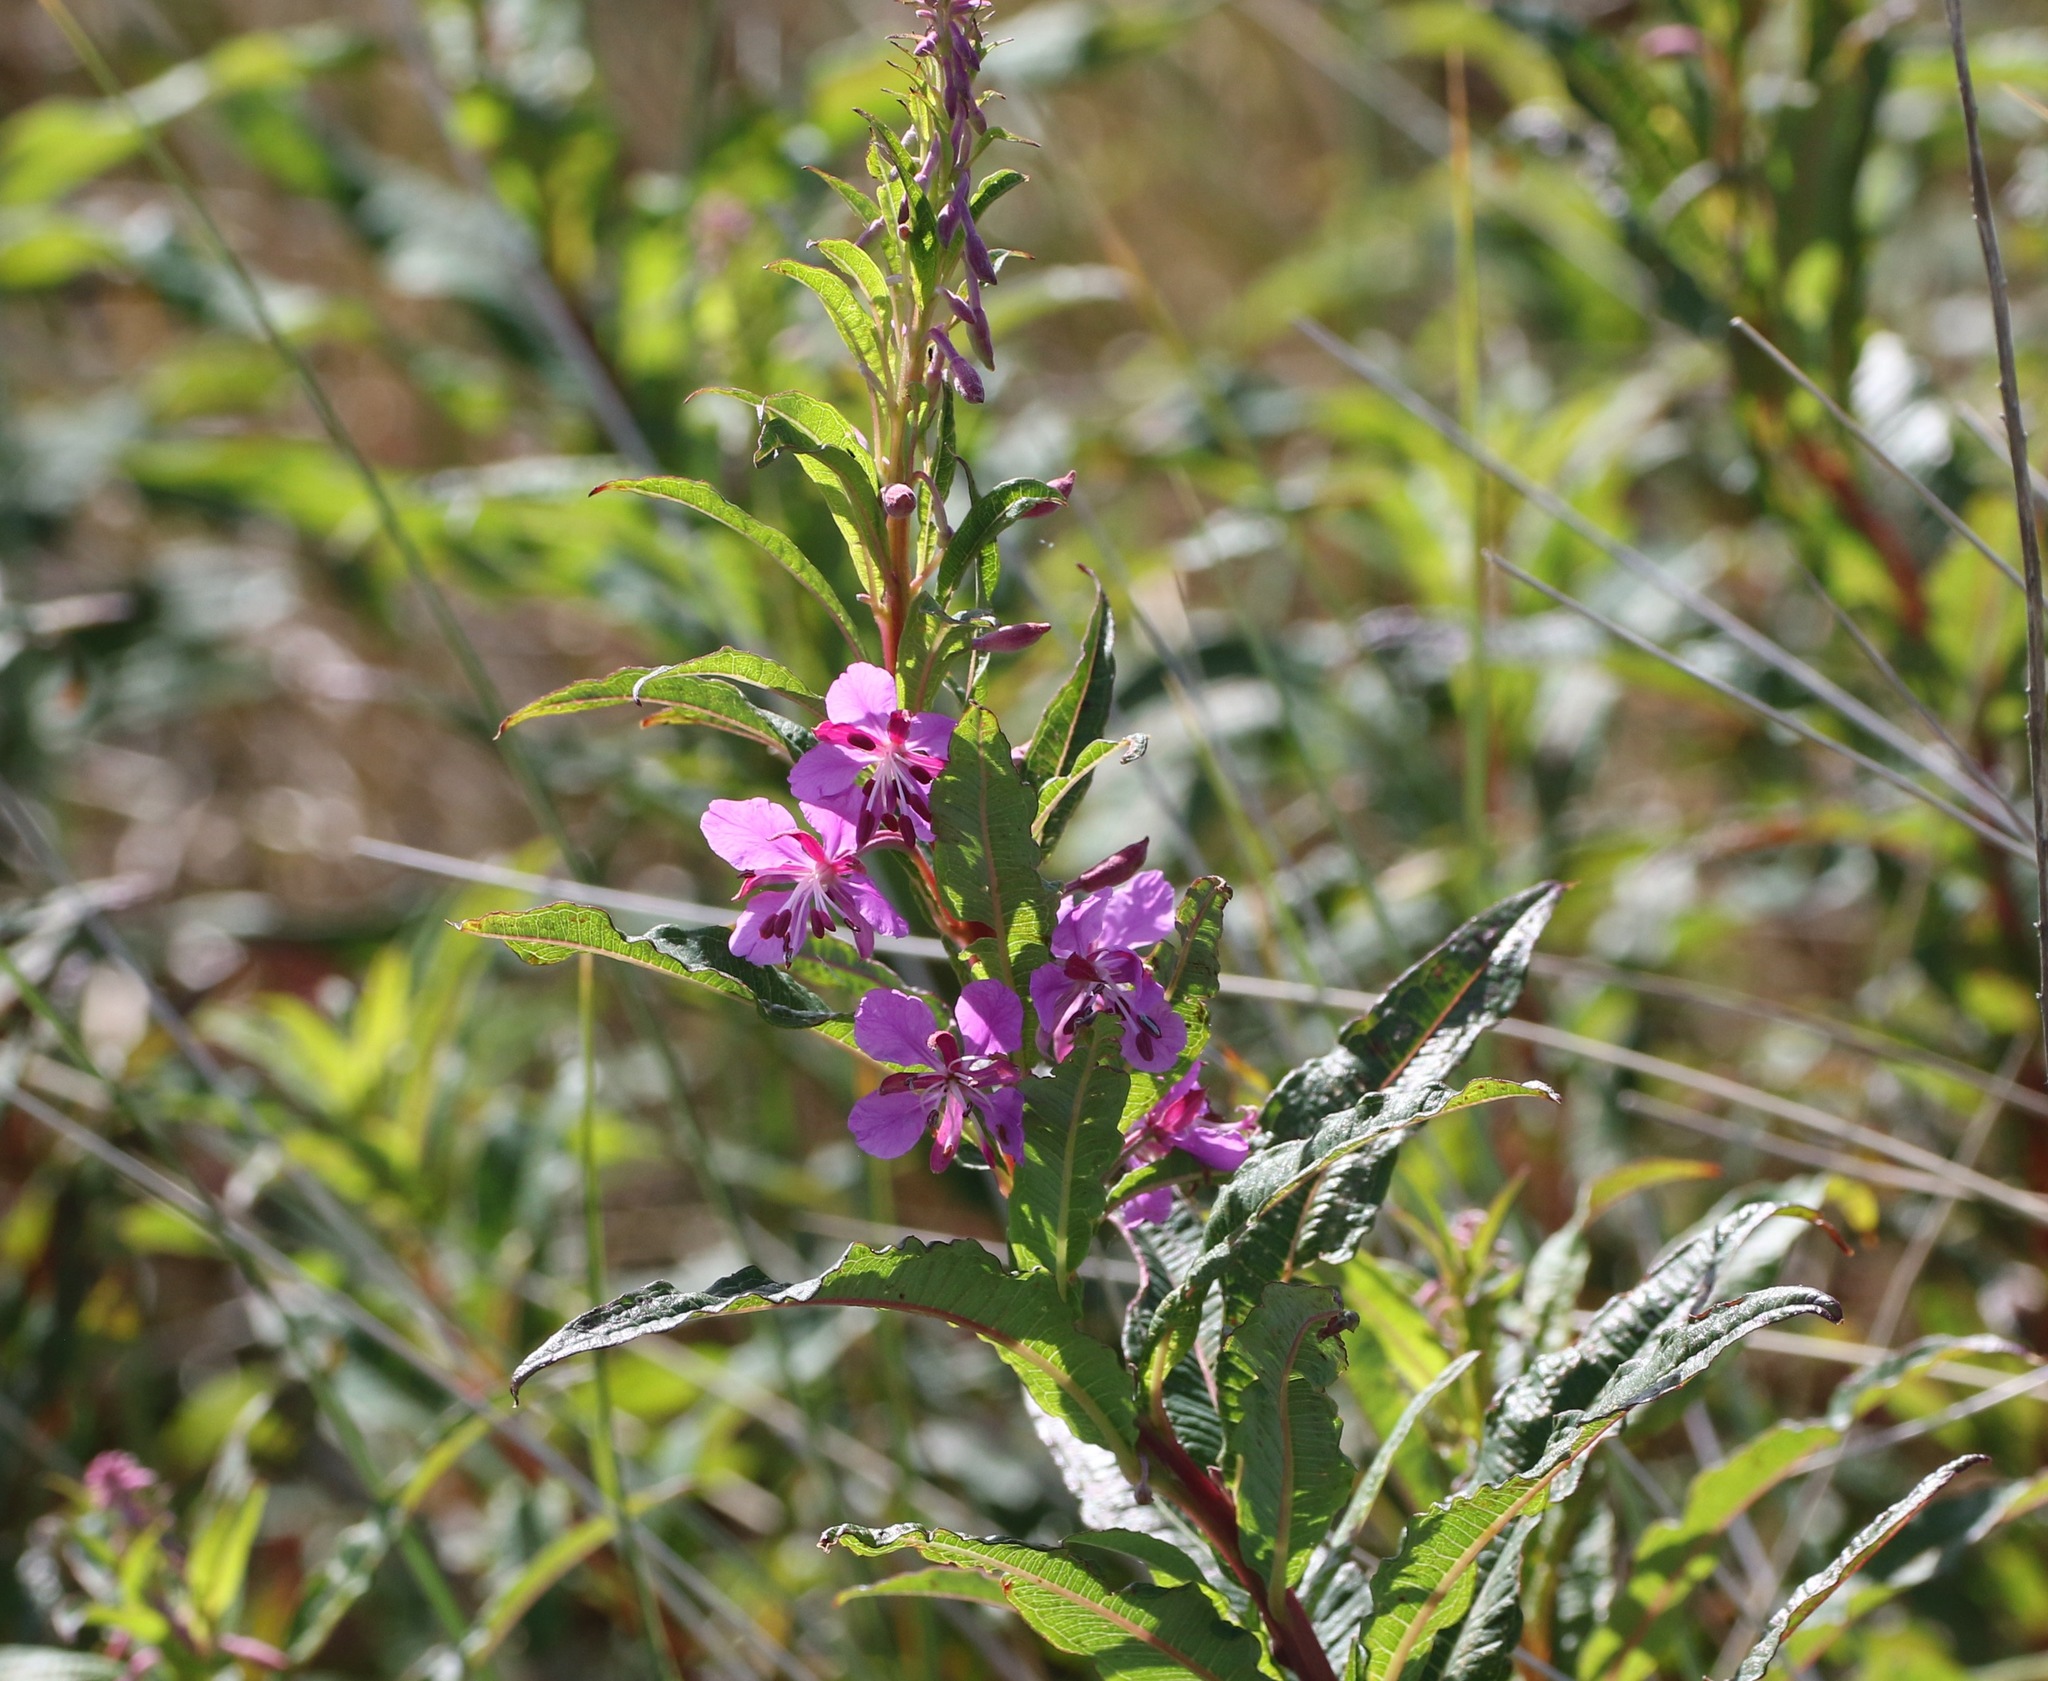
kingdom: Plantae
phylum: Tracheophyta
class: Magnoliopsida
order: Myrtales
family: Onagraceae
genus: Chamaenerion
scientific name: Chamaenerion angustifolium
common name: Fireweed
